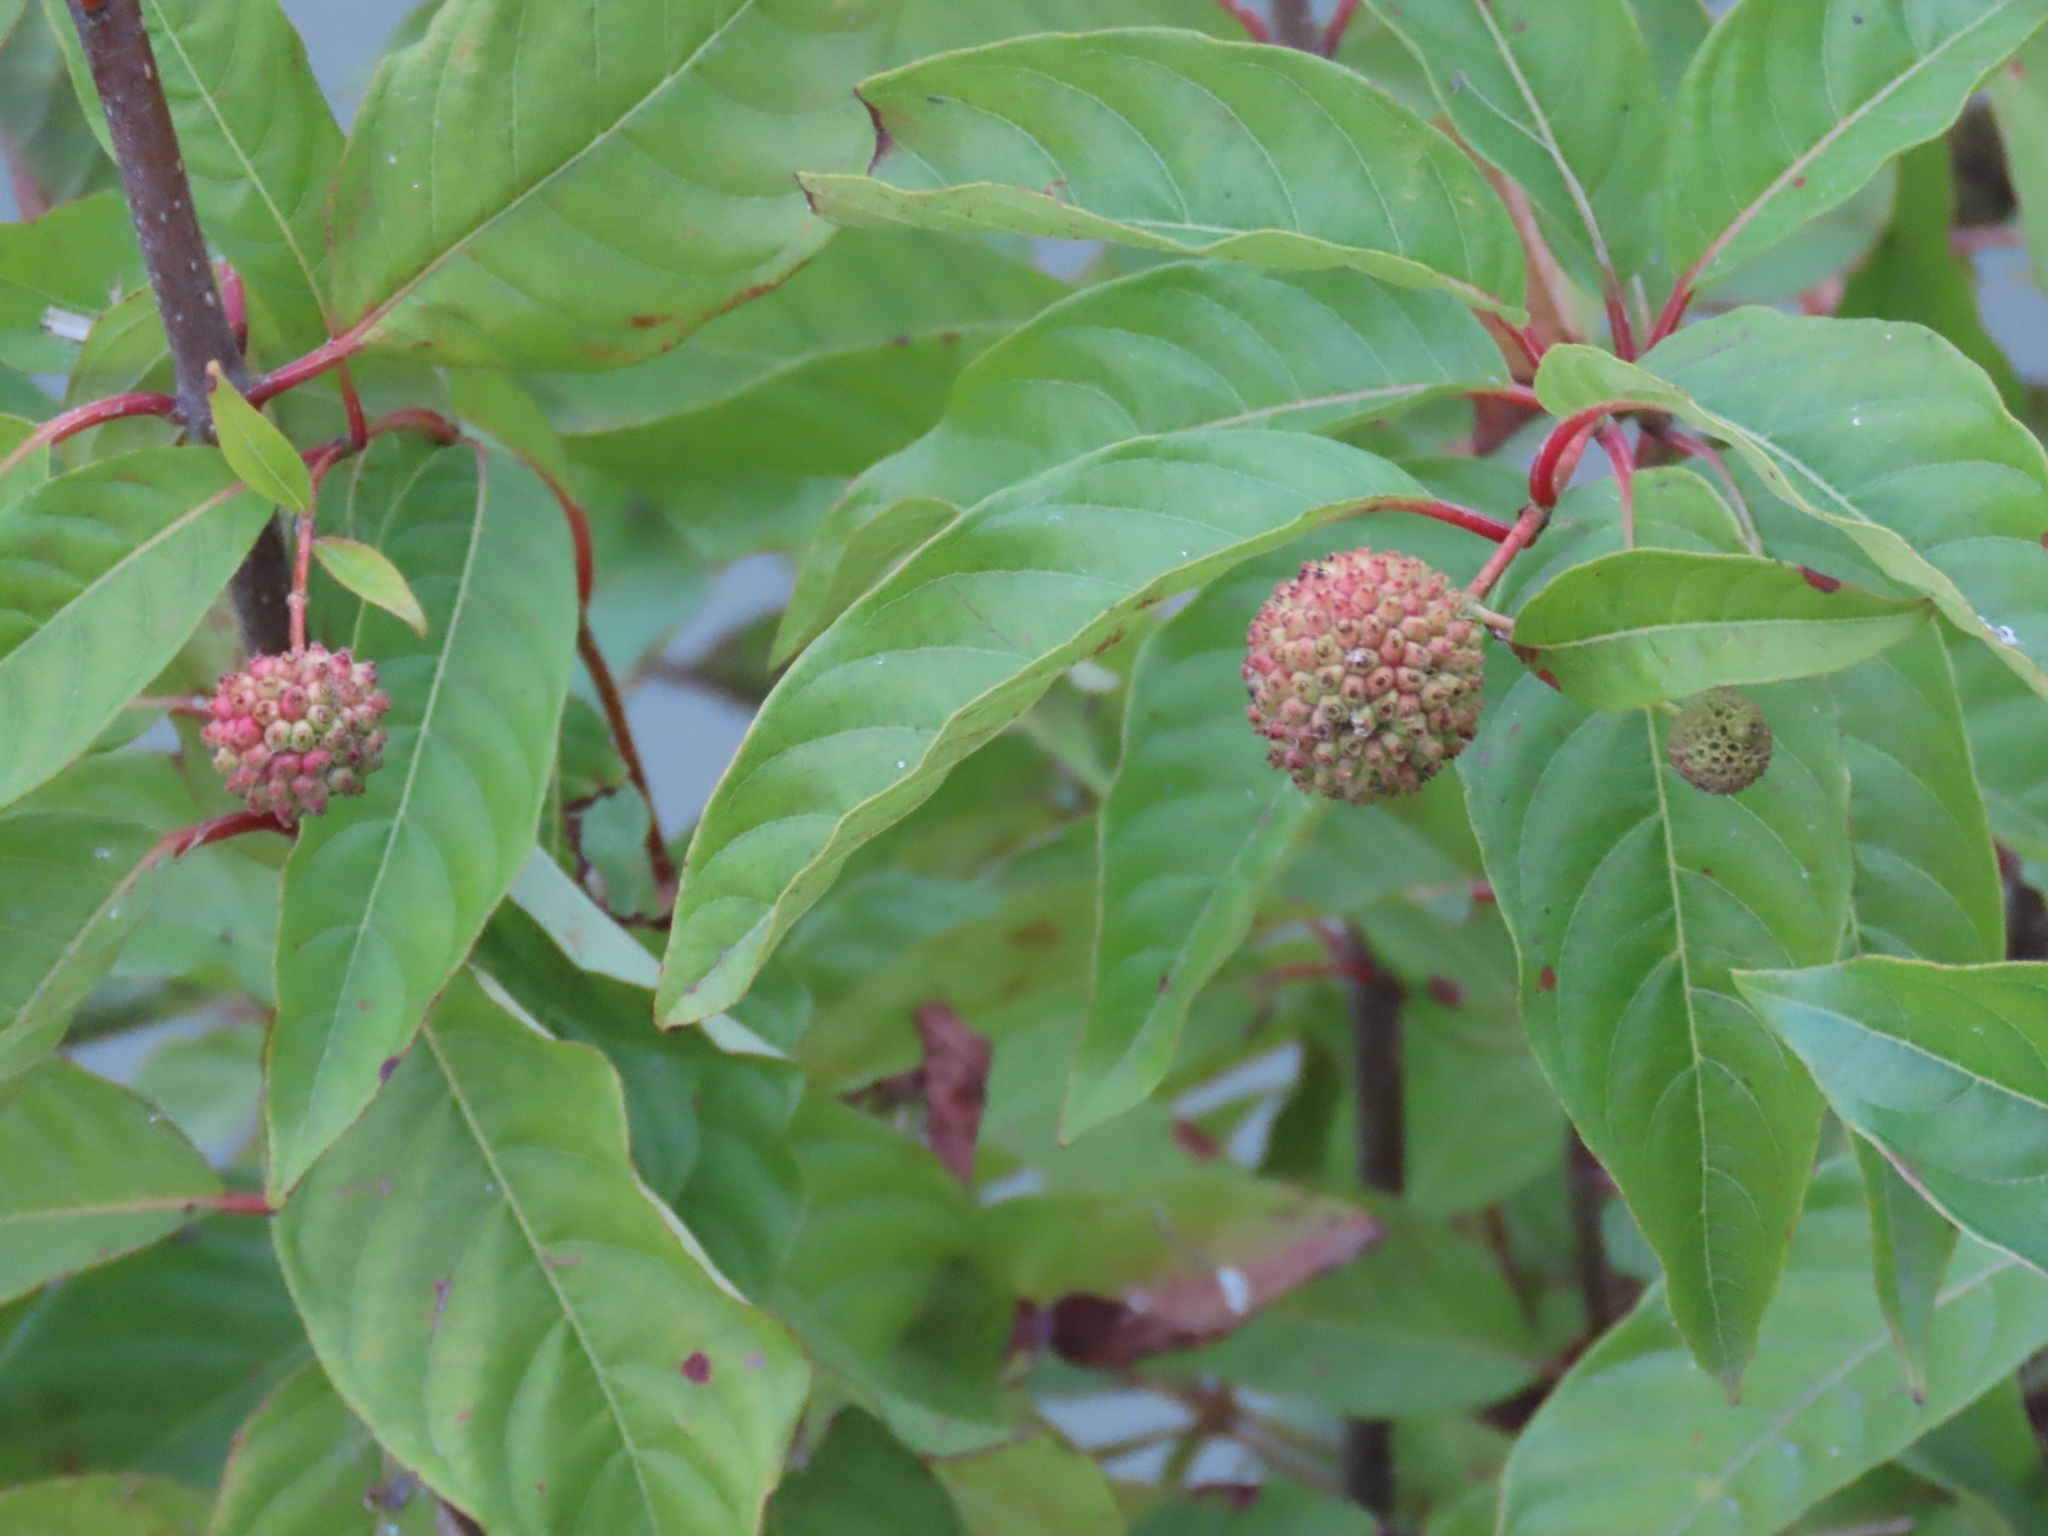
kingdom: Plantae
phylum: Tracheophyta
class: Magnoliopsida
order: Gentianales
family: Rubiaceae
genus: Cephalanthus
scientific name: Cephalanthus occidentalis
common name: Button-willow
